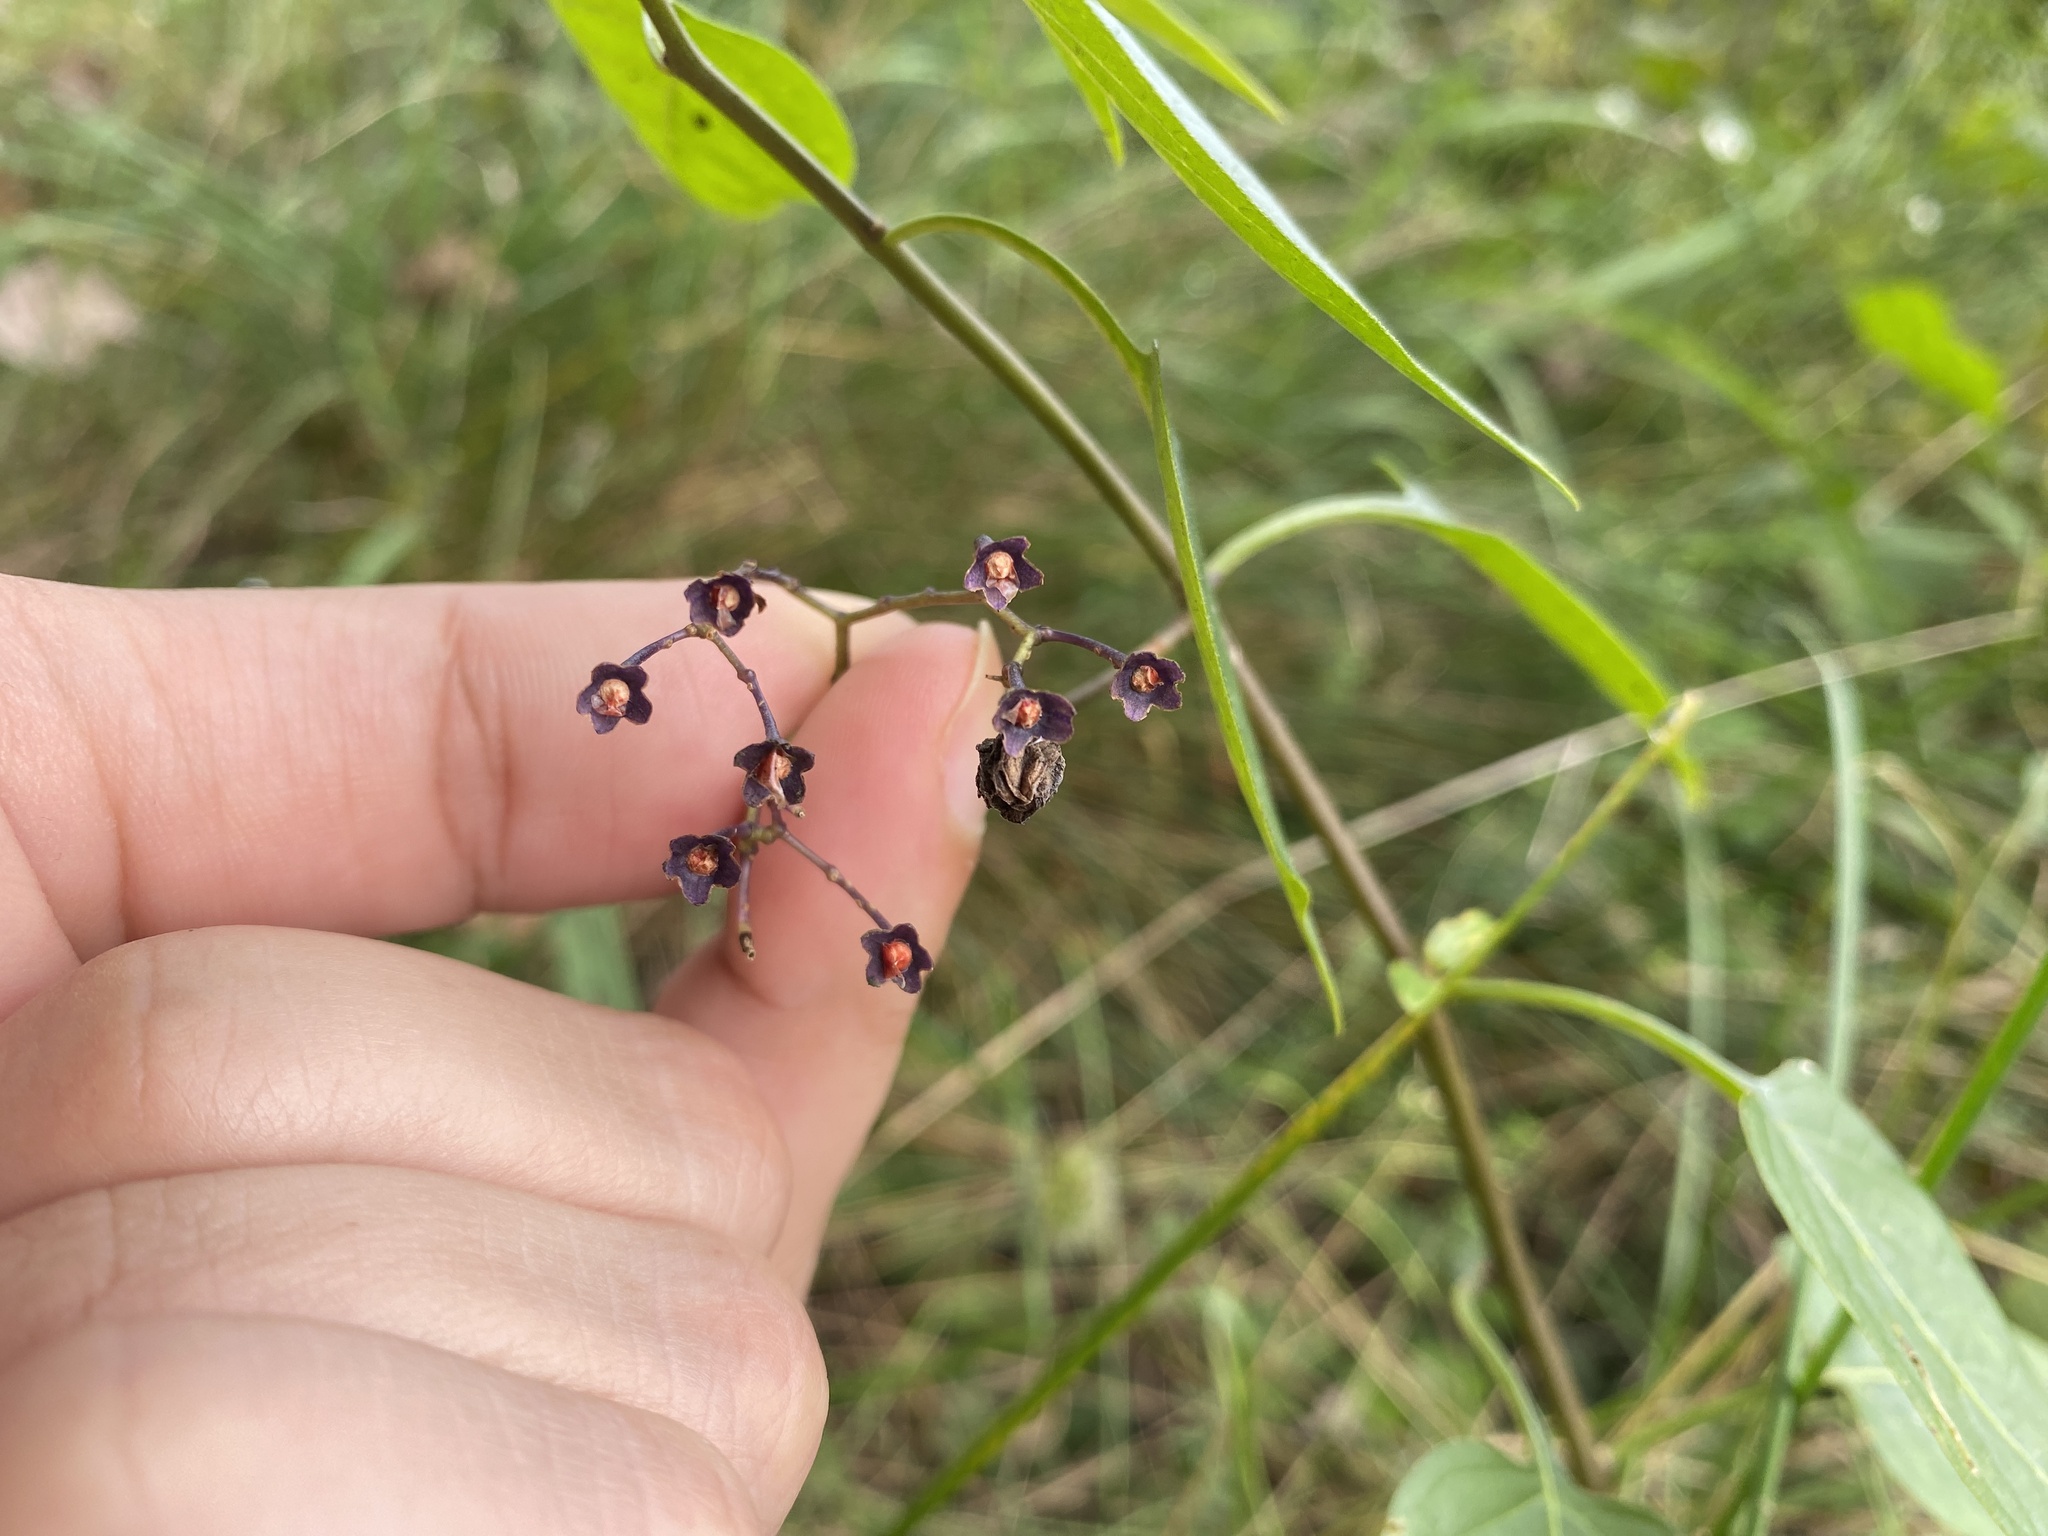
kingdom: Plantae
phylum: Tracheophyta
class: Magnoliopsida
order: Solanales
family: Solanaceae
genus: Solanum
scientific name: Solanum dulcamara
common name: Climbing nightshade
